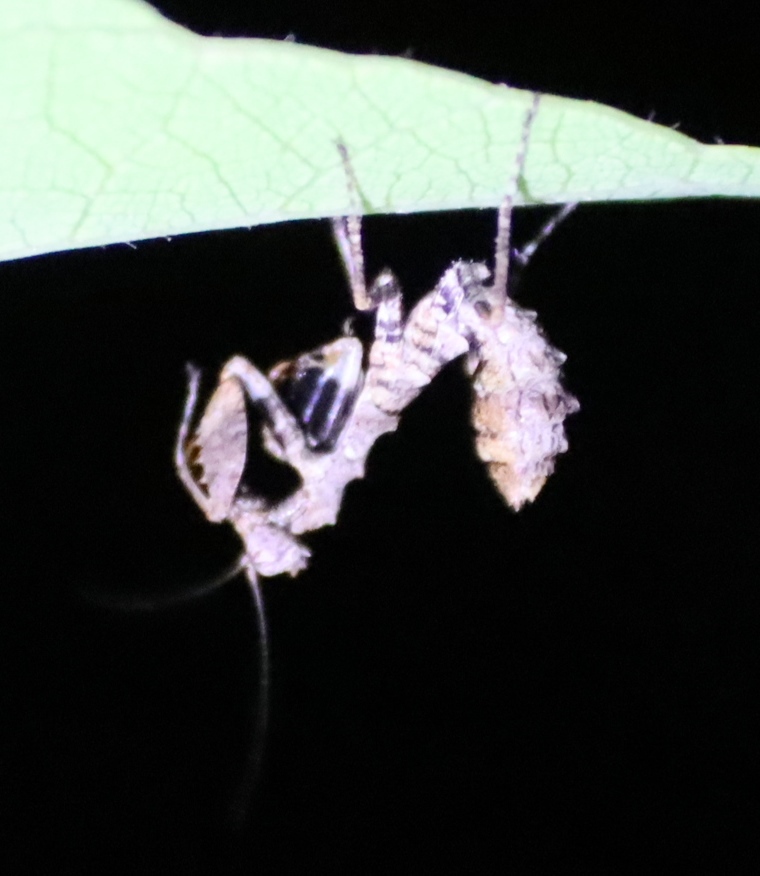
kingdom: Animalia
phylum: Arthropoda
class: Insecta
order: Mantodea
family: Hymenopodidae
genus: Oxypiloidea
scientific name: Oxypiloidea tridens
